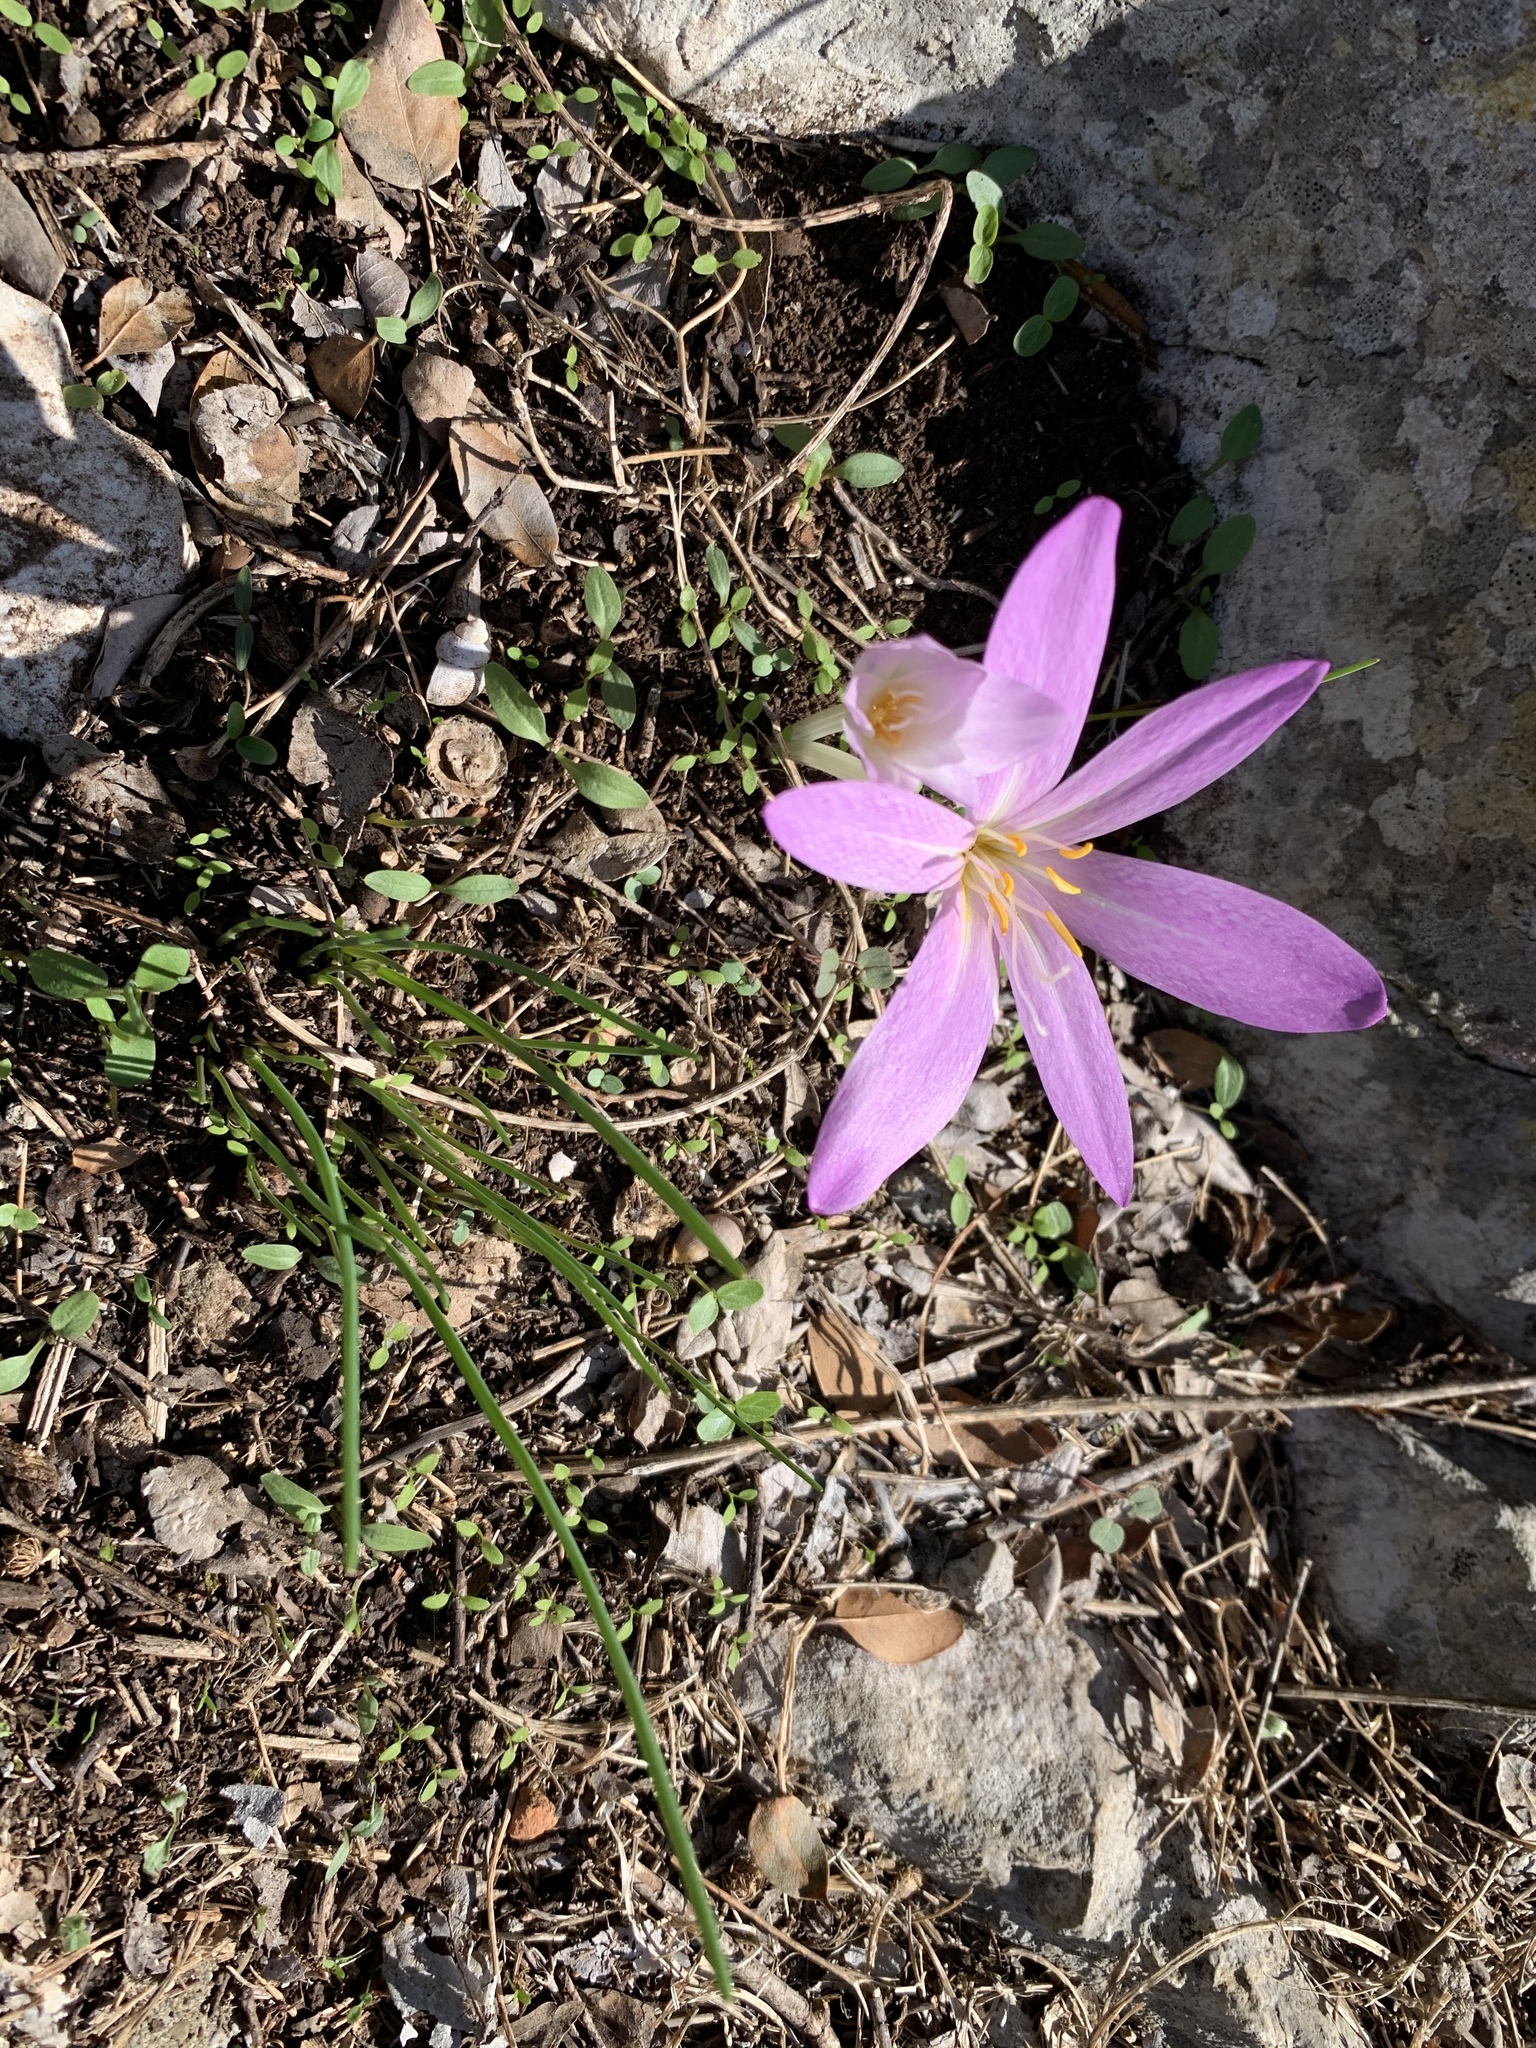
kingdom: Plantae
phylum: Tracheophyta
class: Liliopsida
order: Liliales
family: Colchicaceae
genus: Colchicum
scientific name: Colchicum haynaldii
